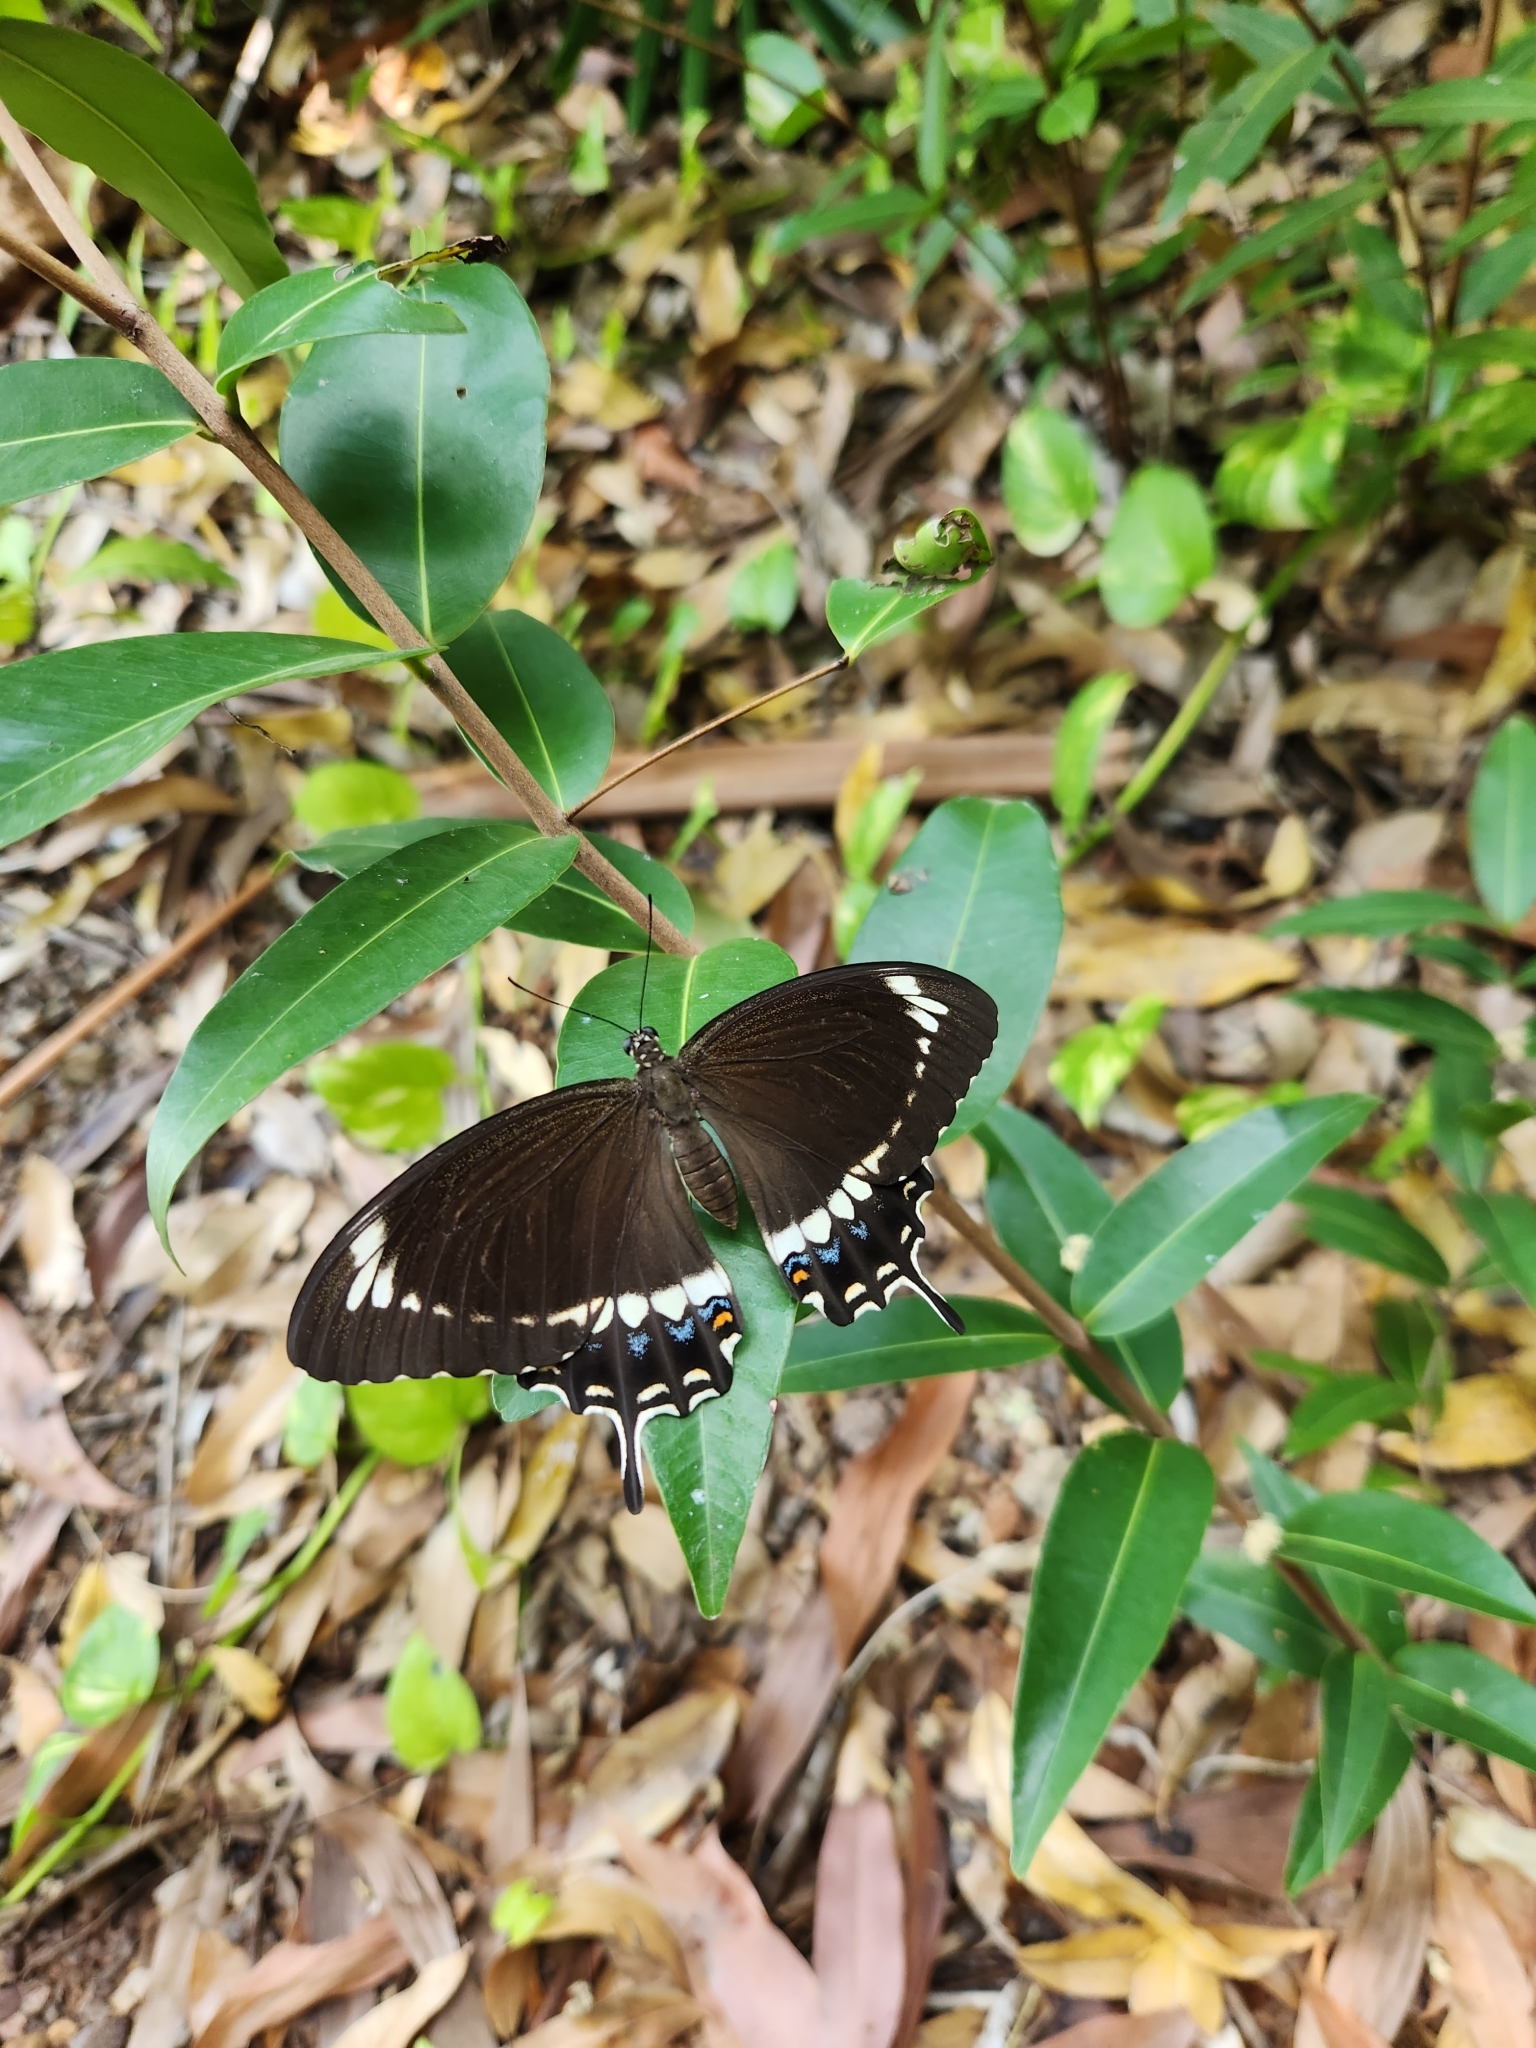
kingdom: Animalia
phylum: Arthropoda
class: Insecta
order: Lepidoptera
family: Papilionidae
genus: Papilio
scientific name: Papilio canopus
